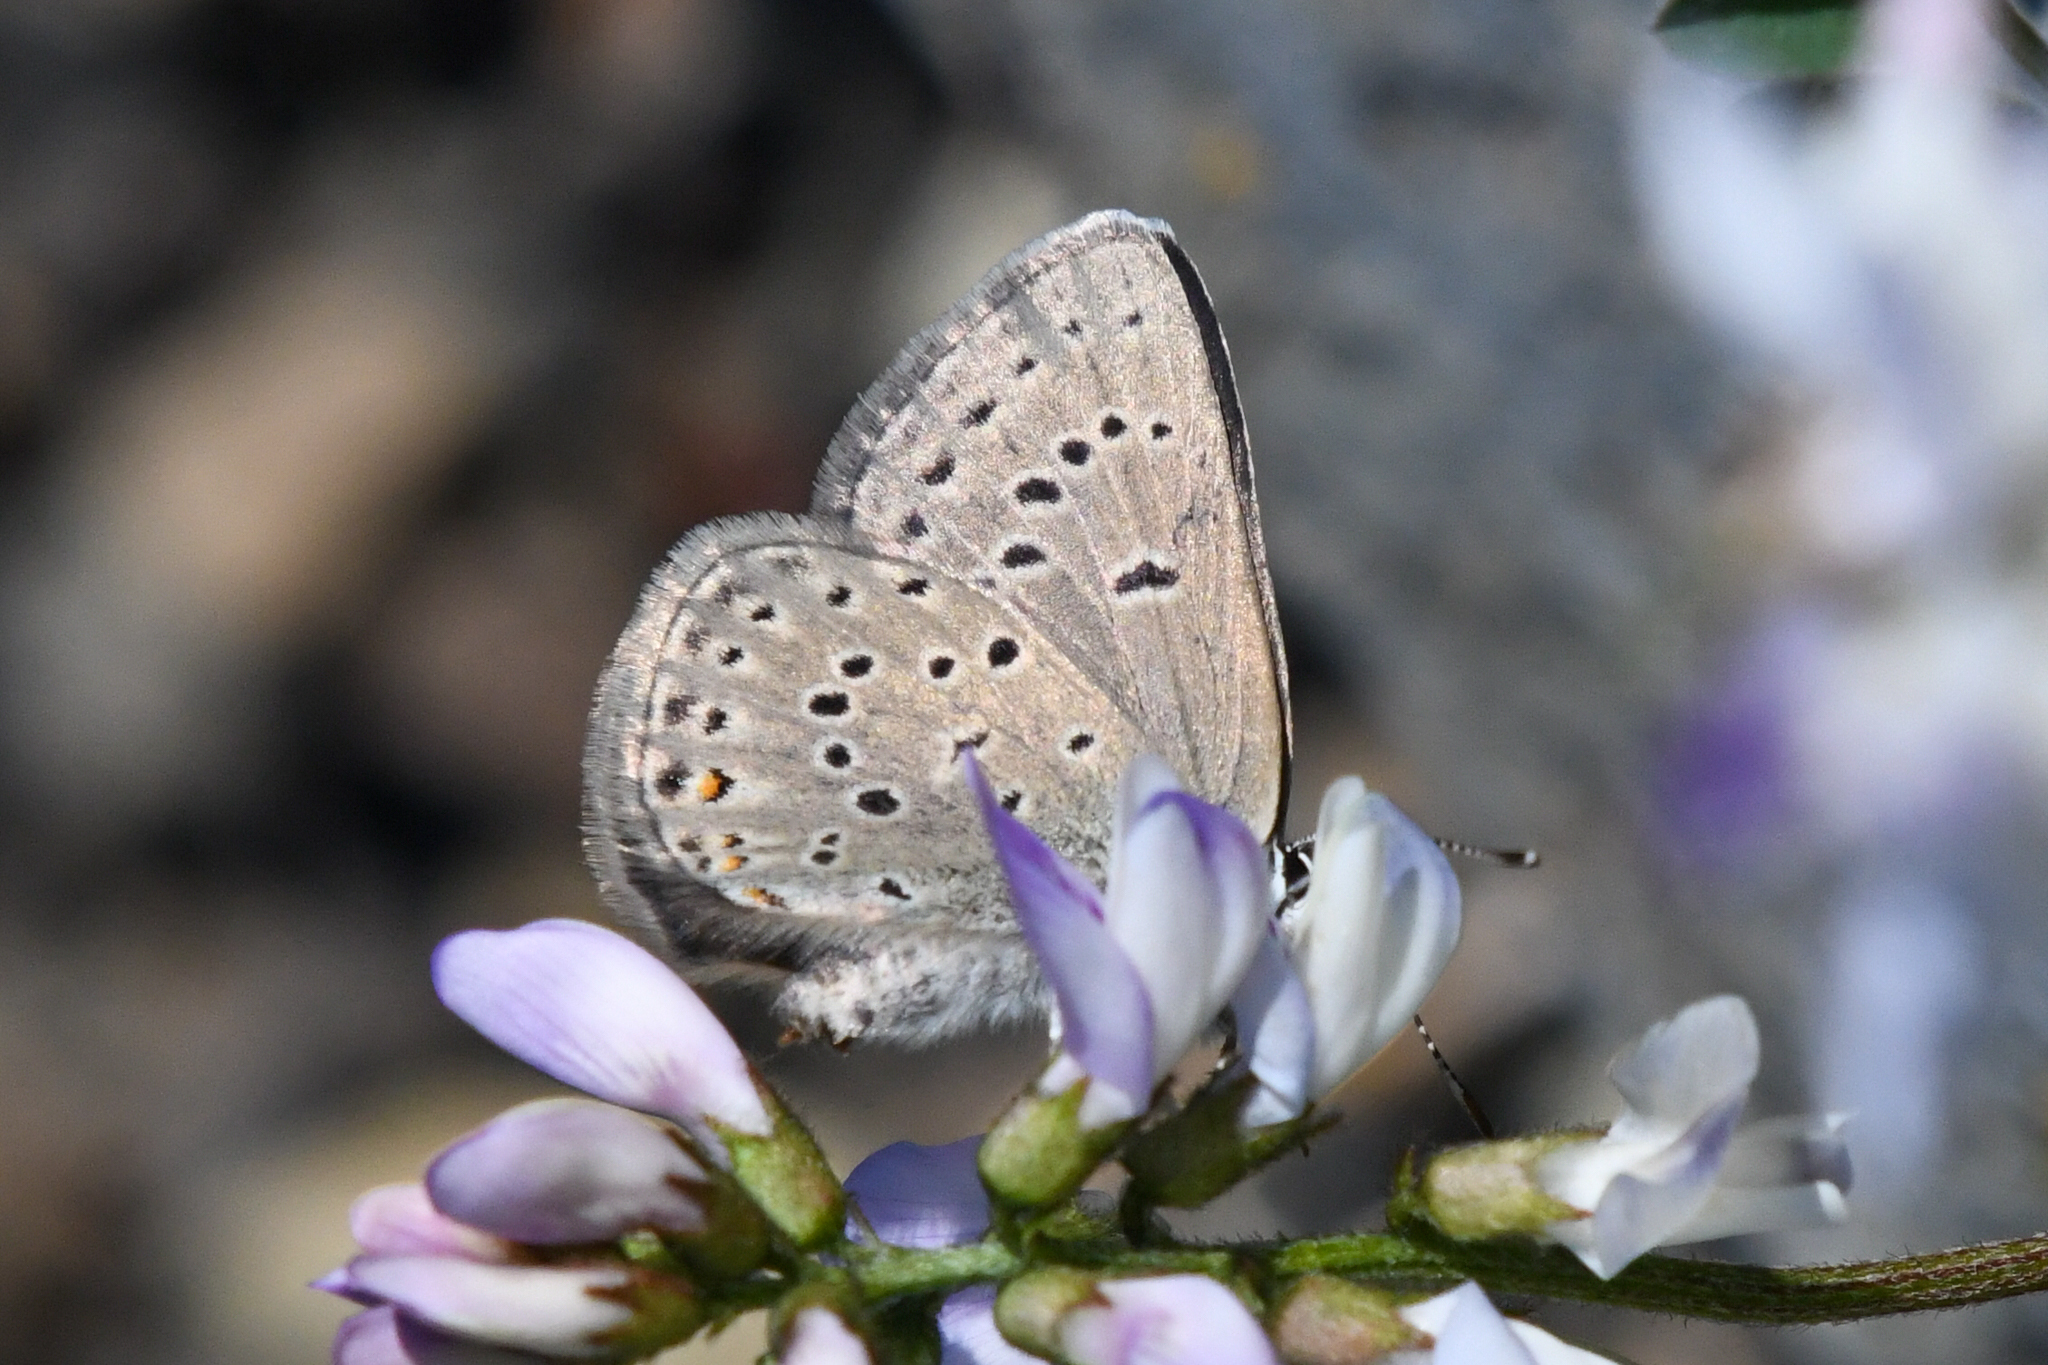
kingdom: Animalia
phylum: Arthropoda
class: Insecta
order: Lepidoptera
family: Lycaenidae
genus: Icaricia
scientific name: Icaricia saepiolus
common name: Greenish blue
